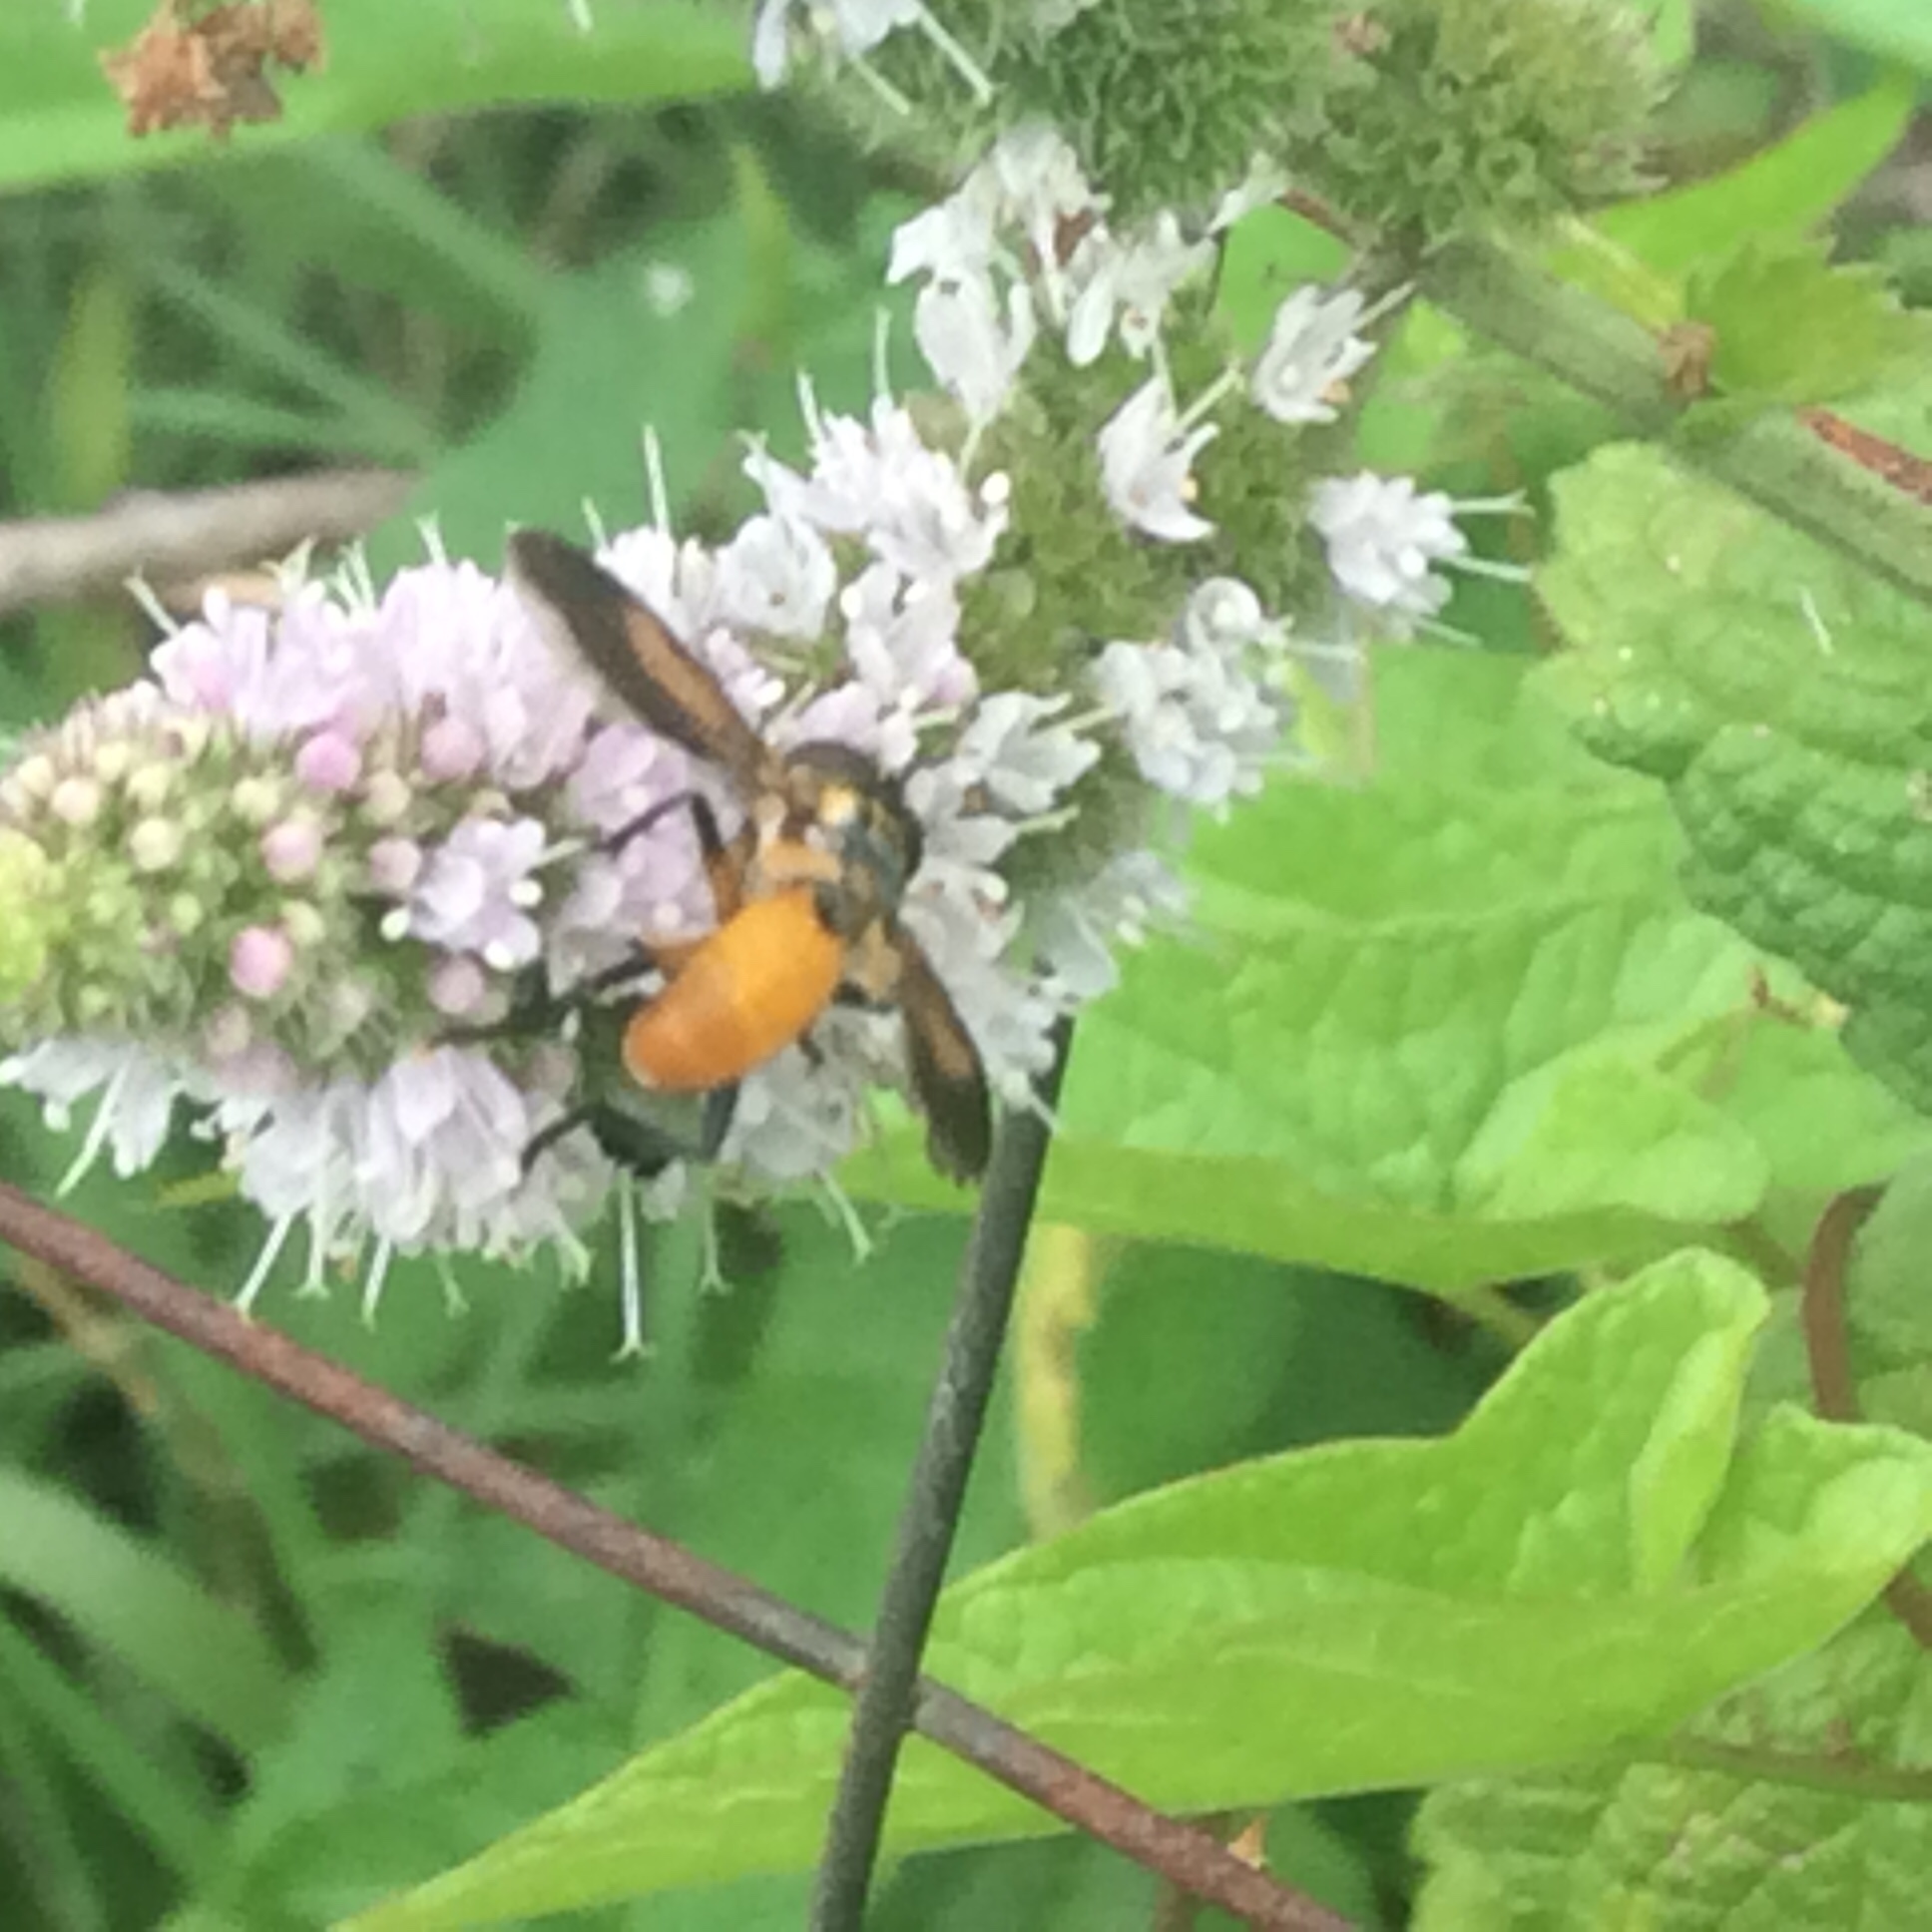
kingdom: Animalia
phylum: Arthropoda
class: Insecta
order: Diptera
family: Tachinidae
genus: Trichopoda
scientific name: Trichopoda pennipes
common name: Tachinid fly
